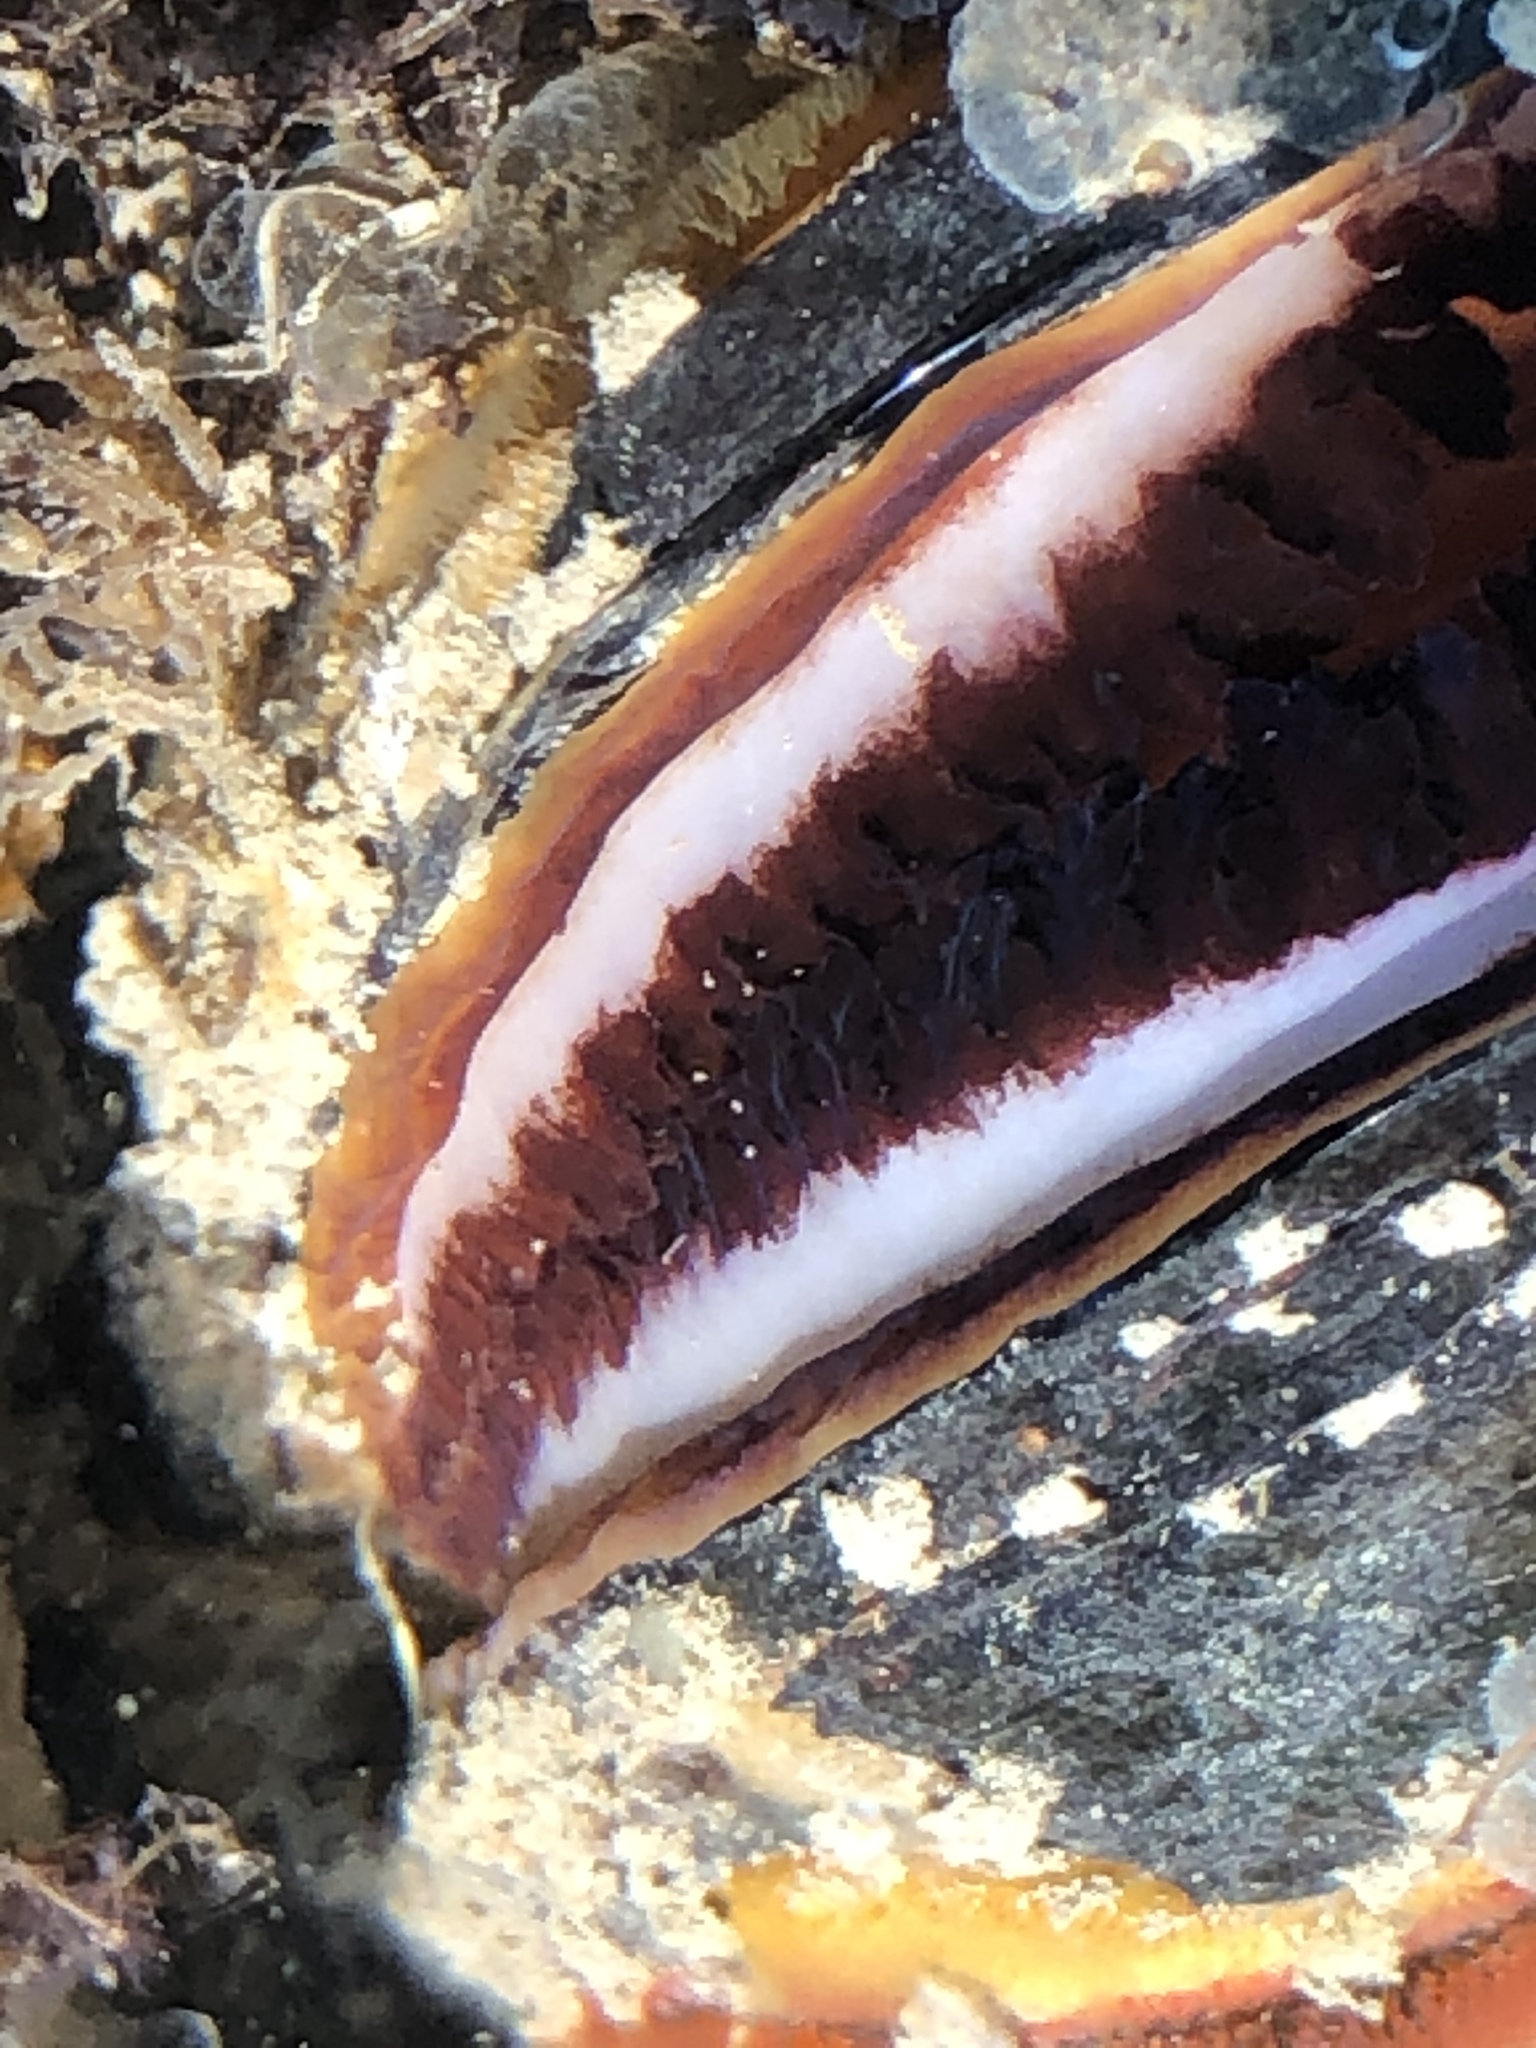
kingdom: Animalia
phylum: Mollusca
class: Bivalvia
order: Mytilida
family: Mytilidae
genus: Mytilus
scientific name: Mytilus
